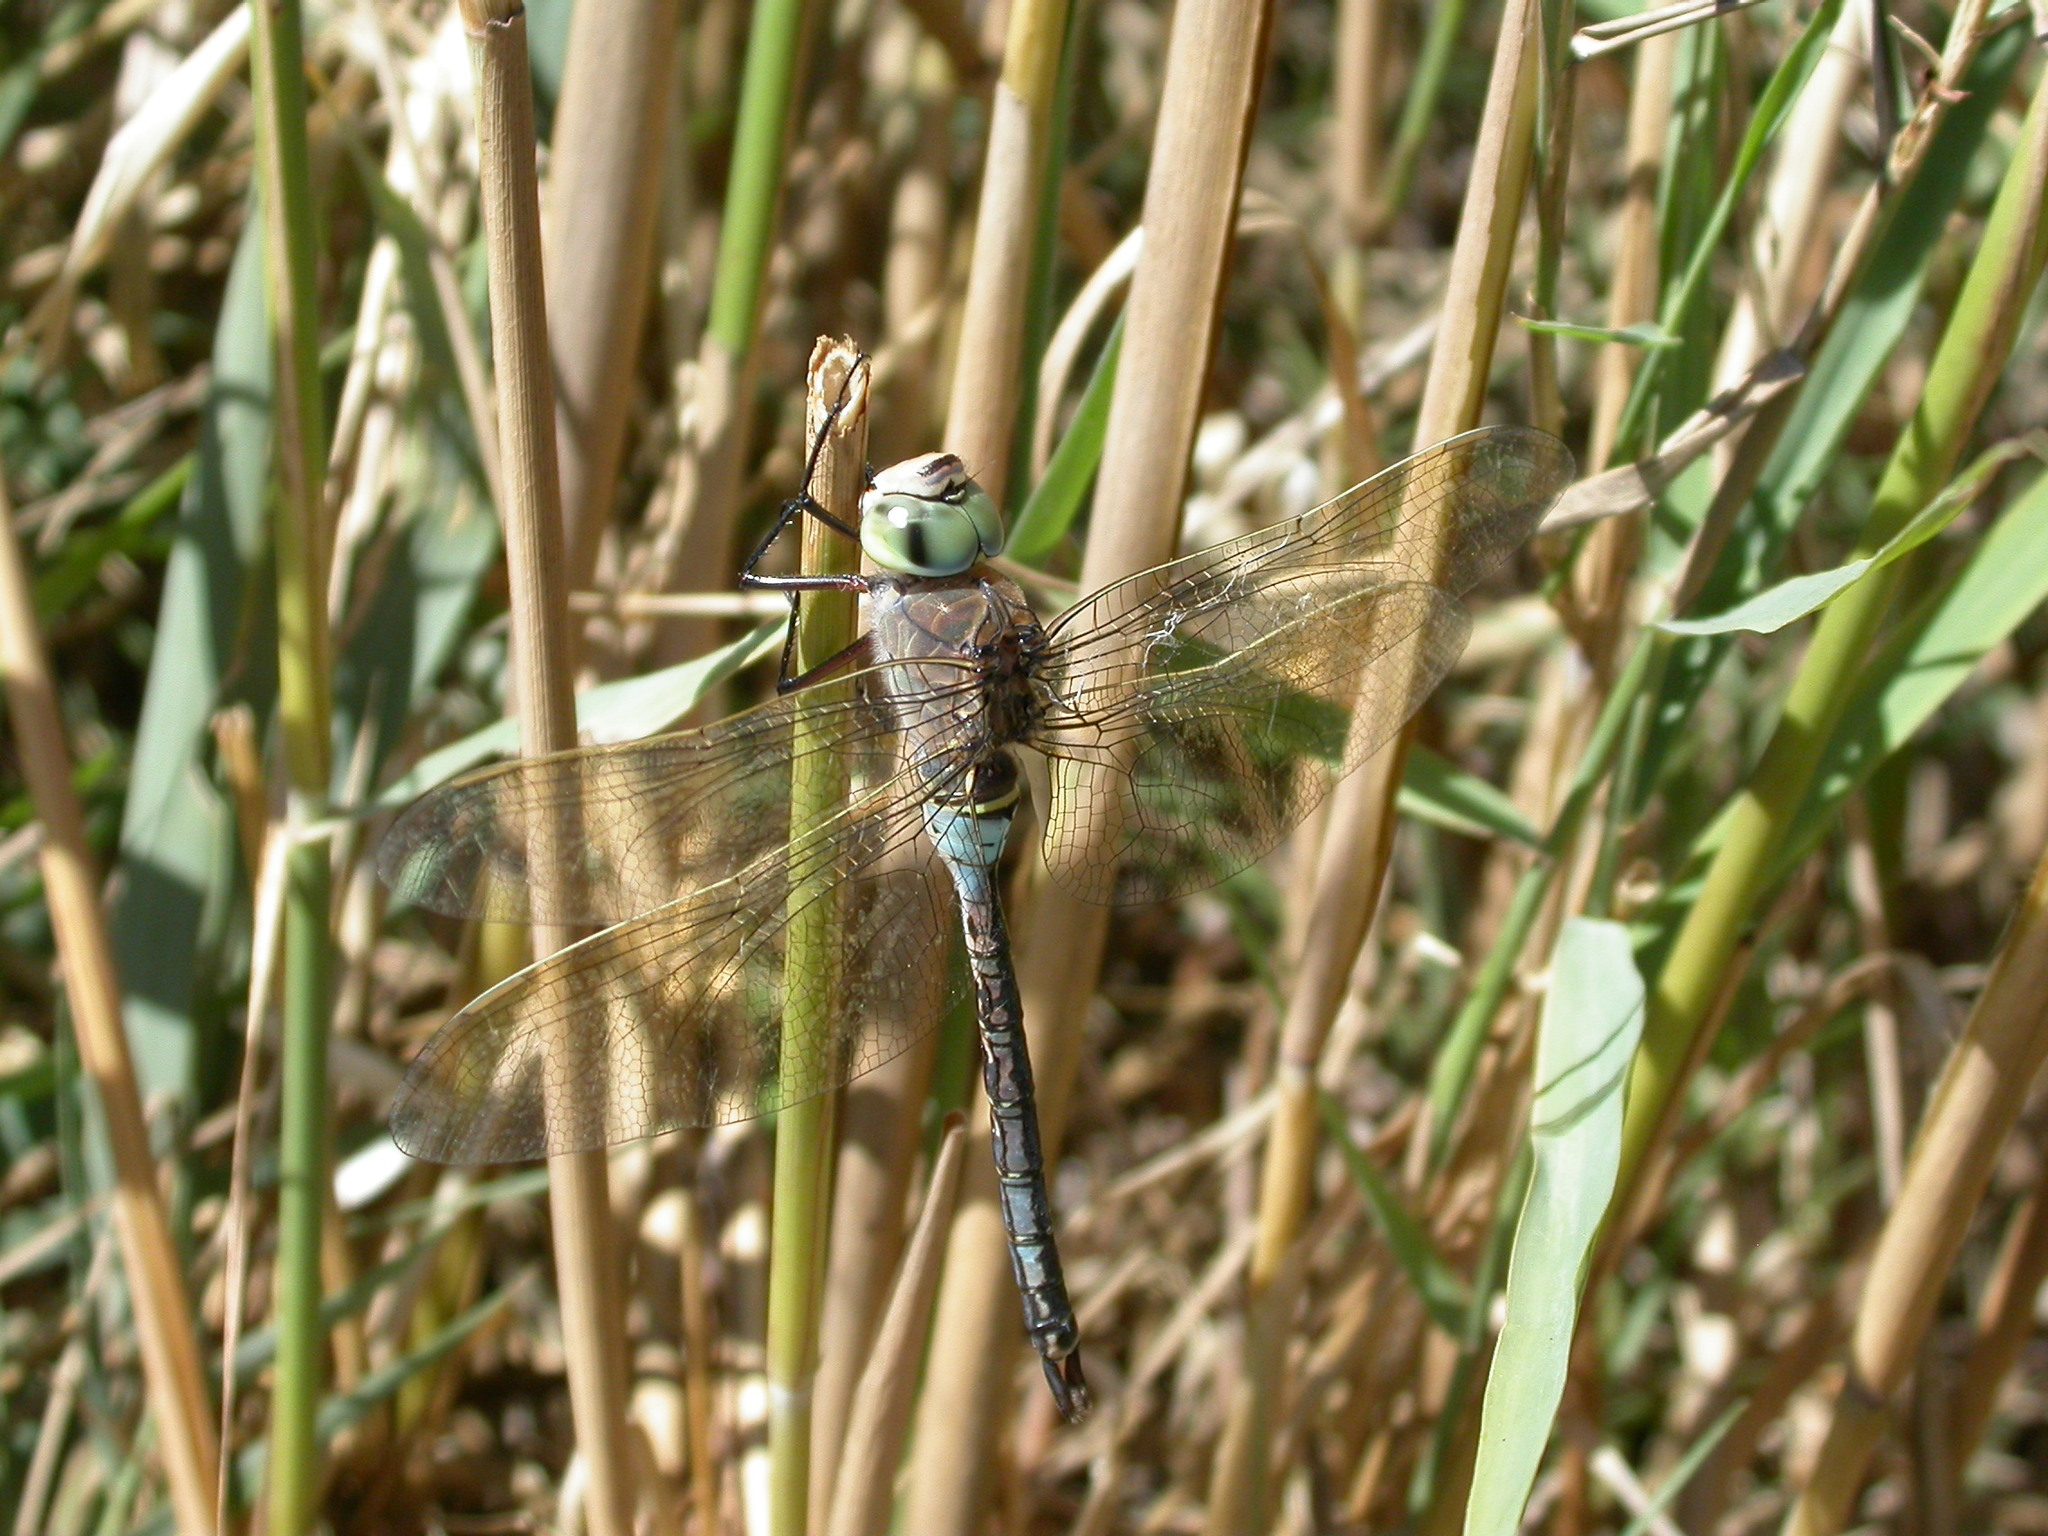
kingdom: Animalia
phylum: Arthropoda
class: Insecta
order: Odonata
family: Aeshnidae
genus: Anax
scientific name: Anax parthenope
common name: Lesser emperor
